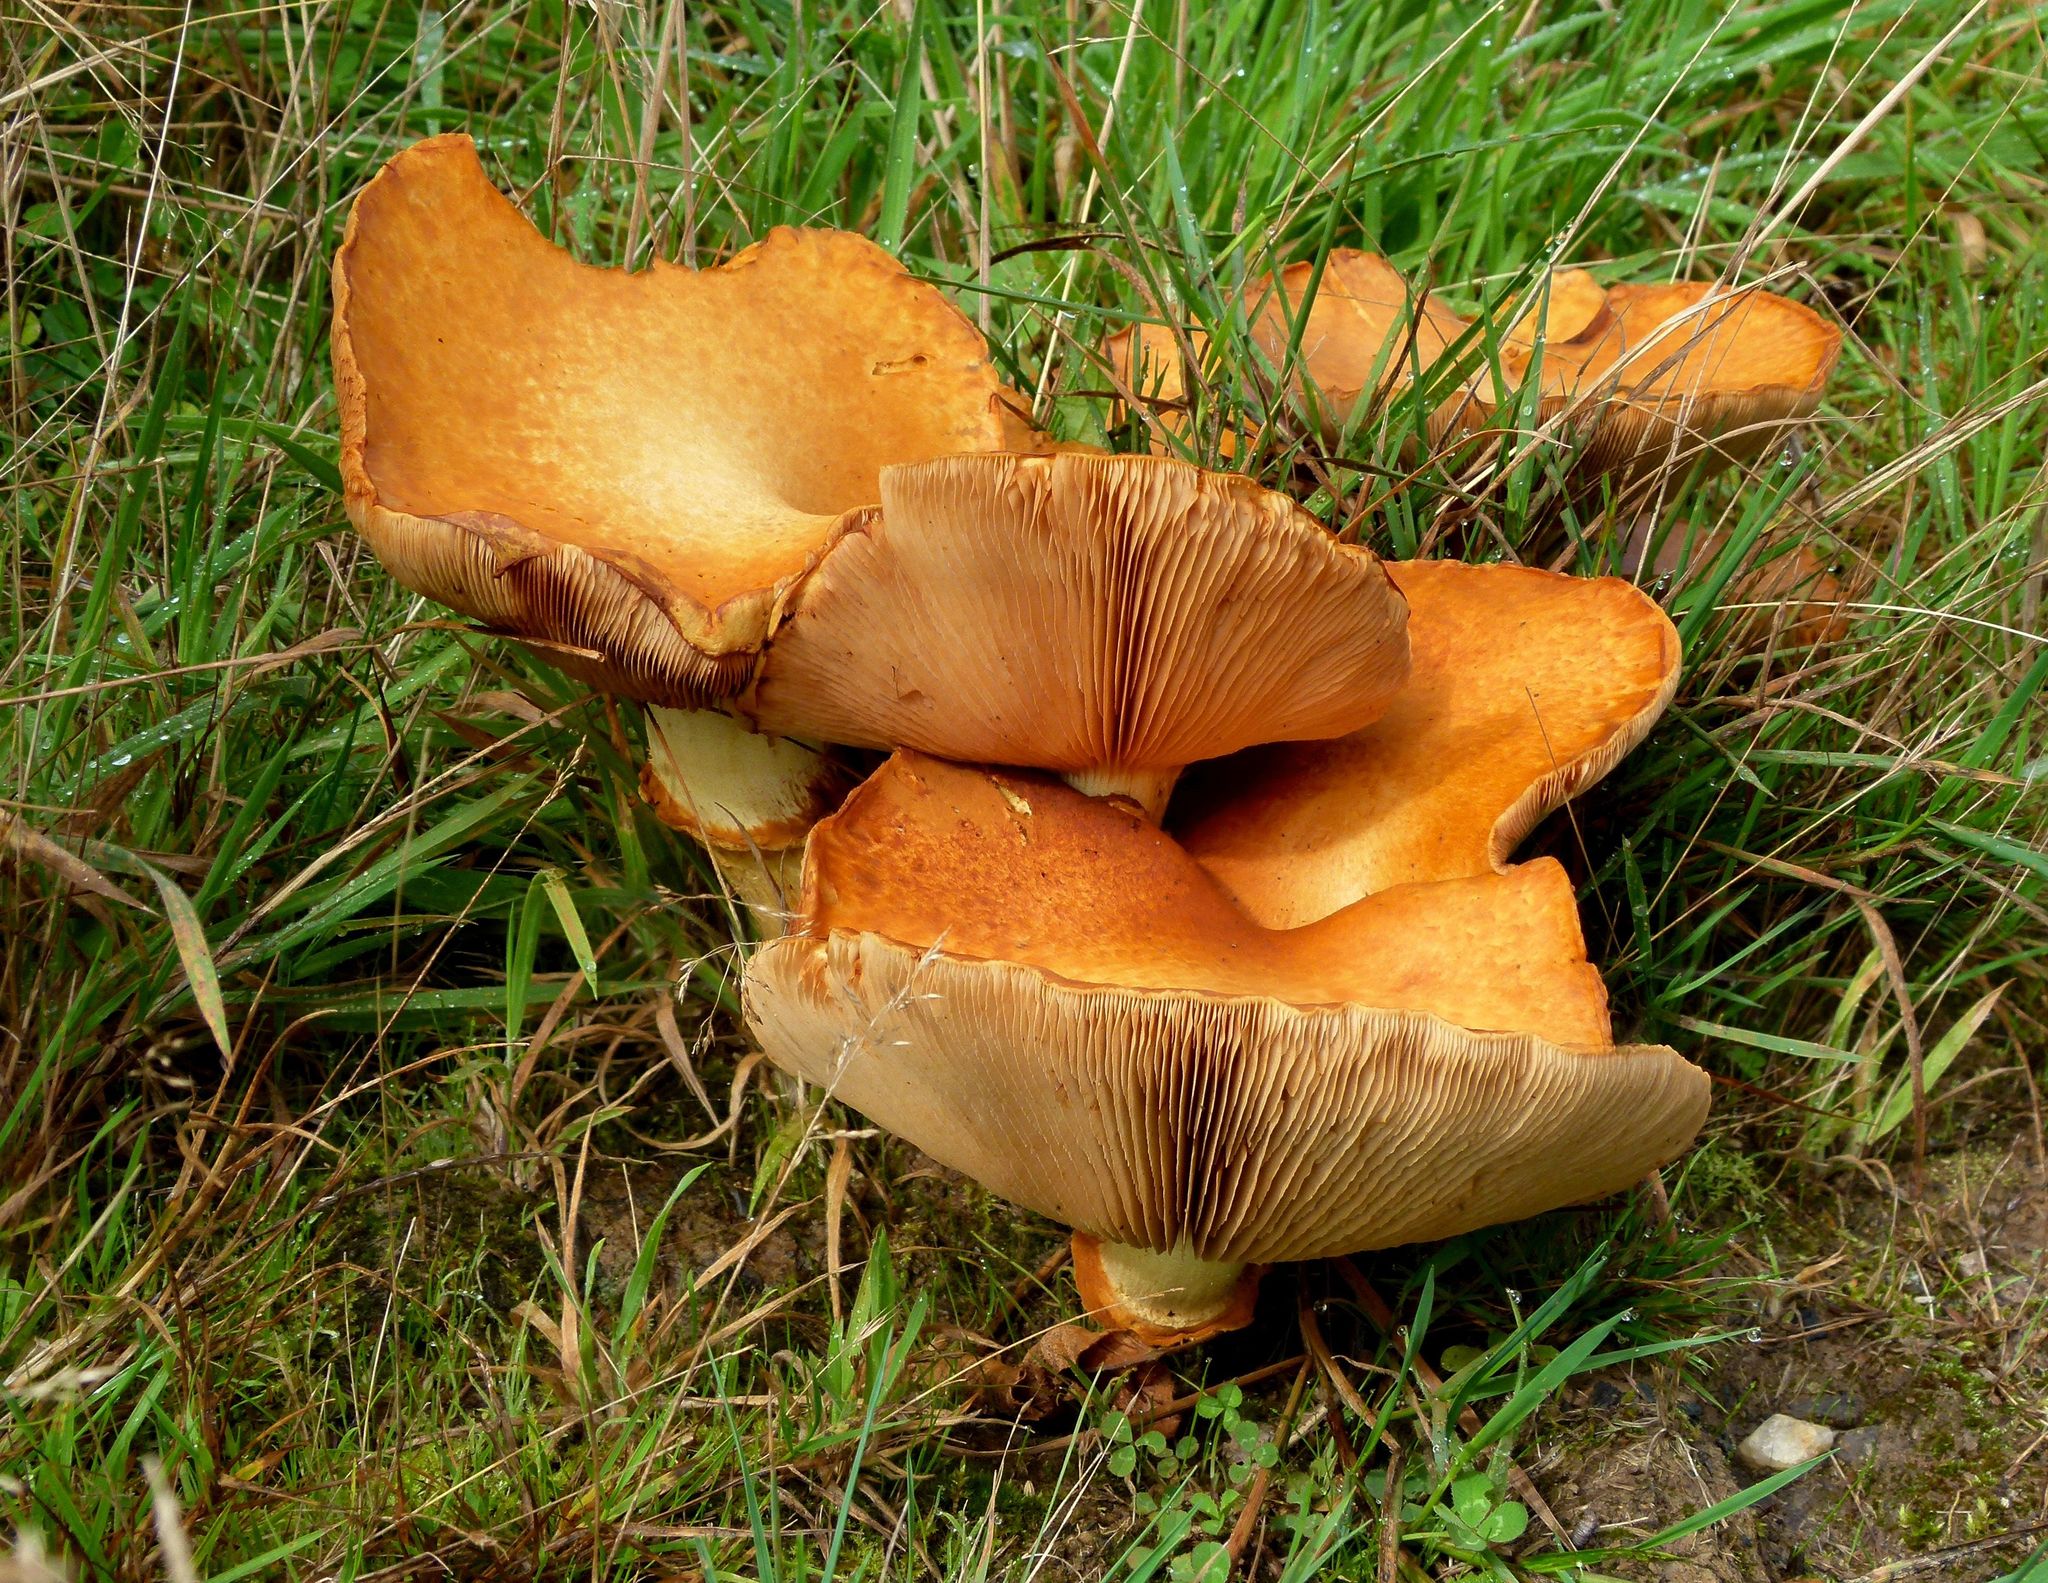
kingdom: Fungi
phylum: Basidiomycota
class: Agaricomycetes
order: Agaricales
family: Hymenogastraceae
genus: Gymnopilus
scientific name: Gymnopilus junonius
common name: Spectacular rustgill
